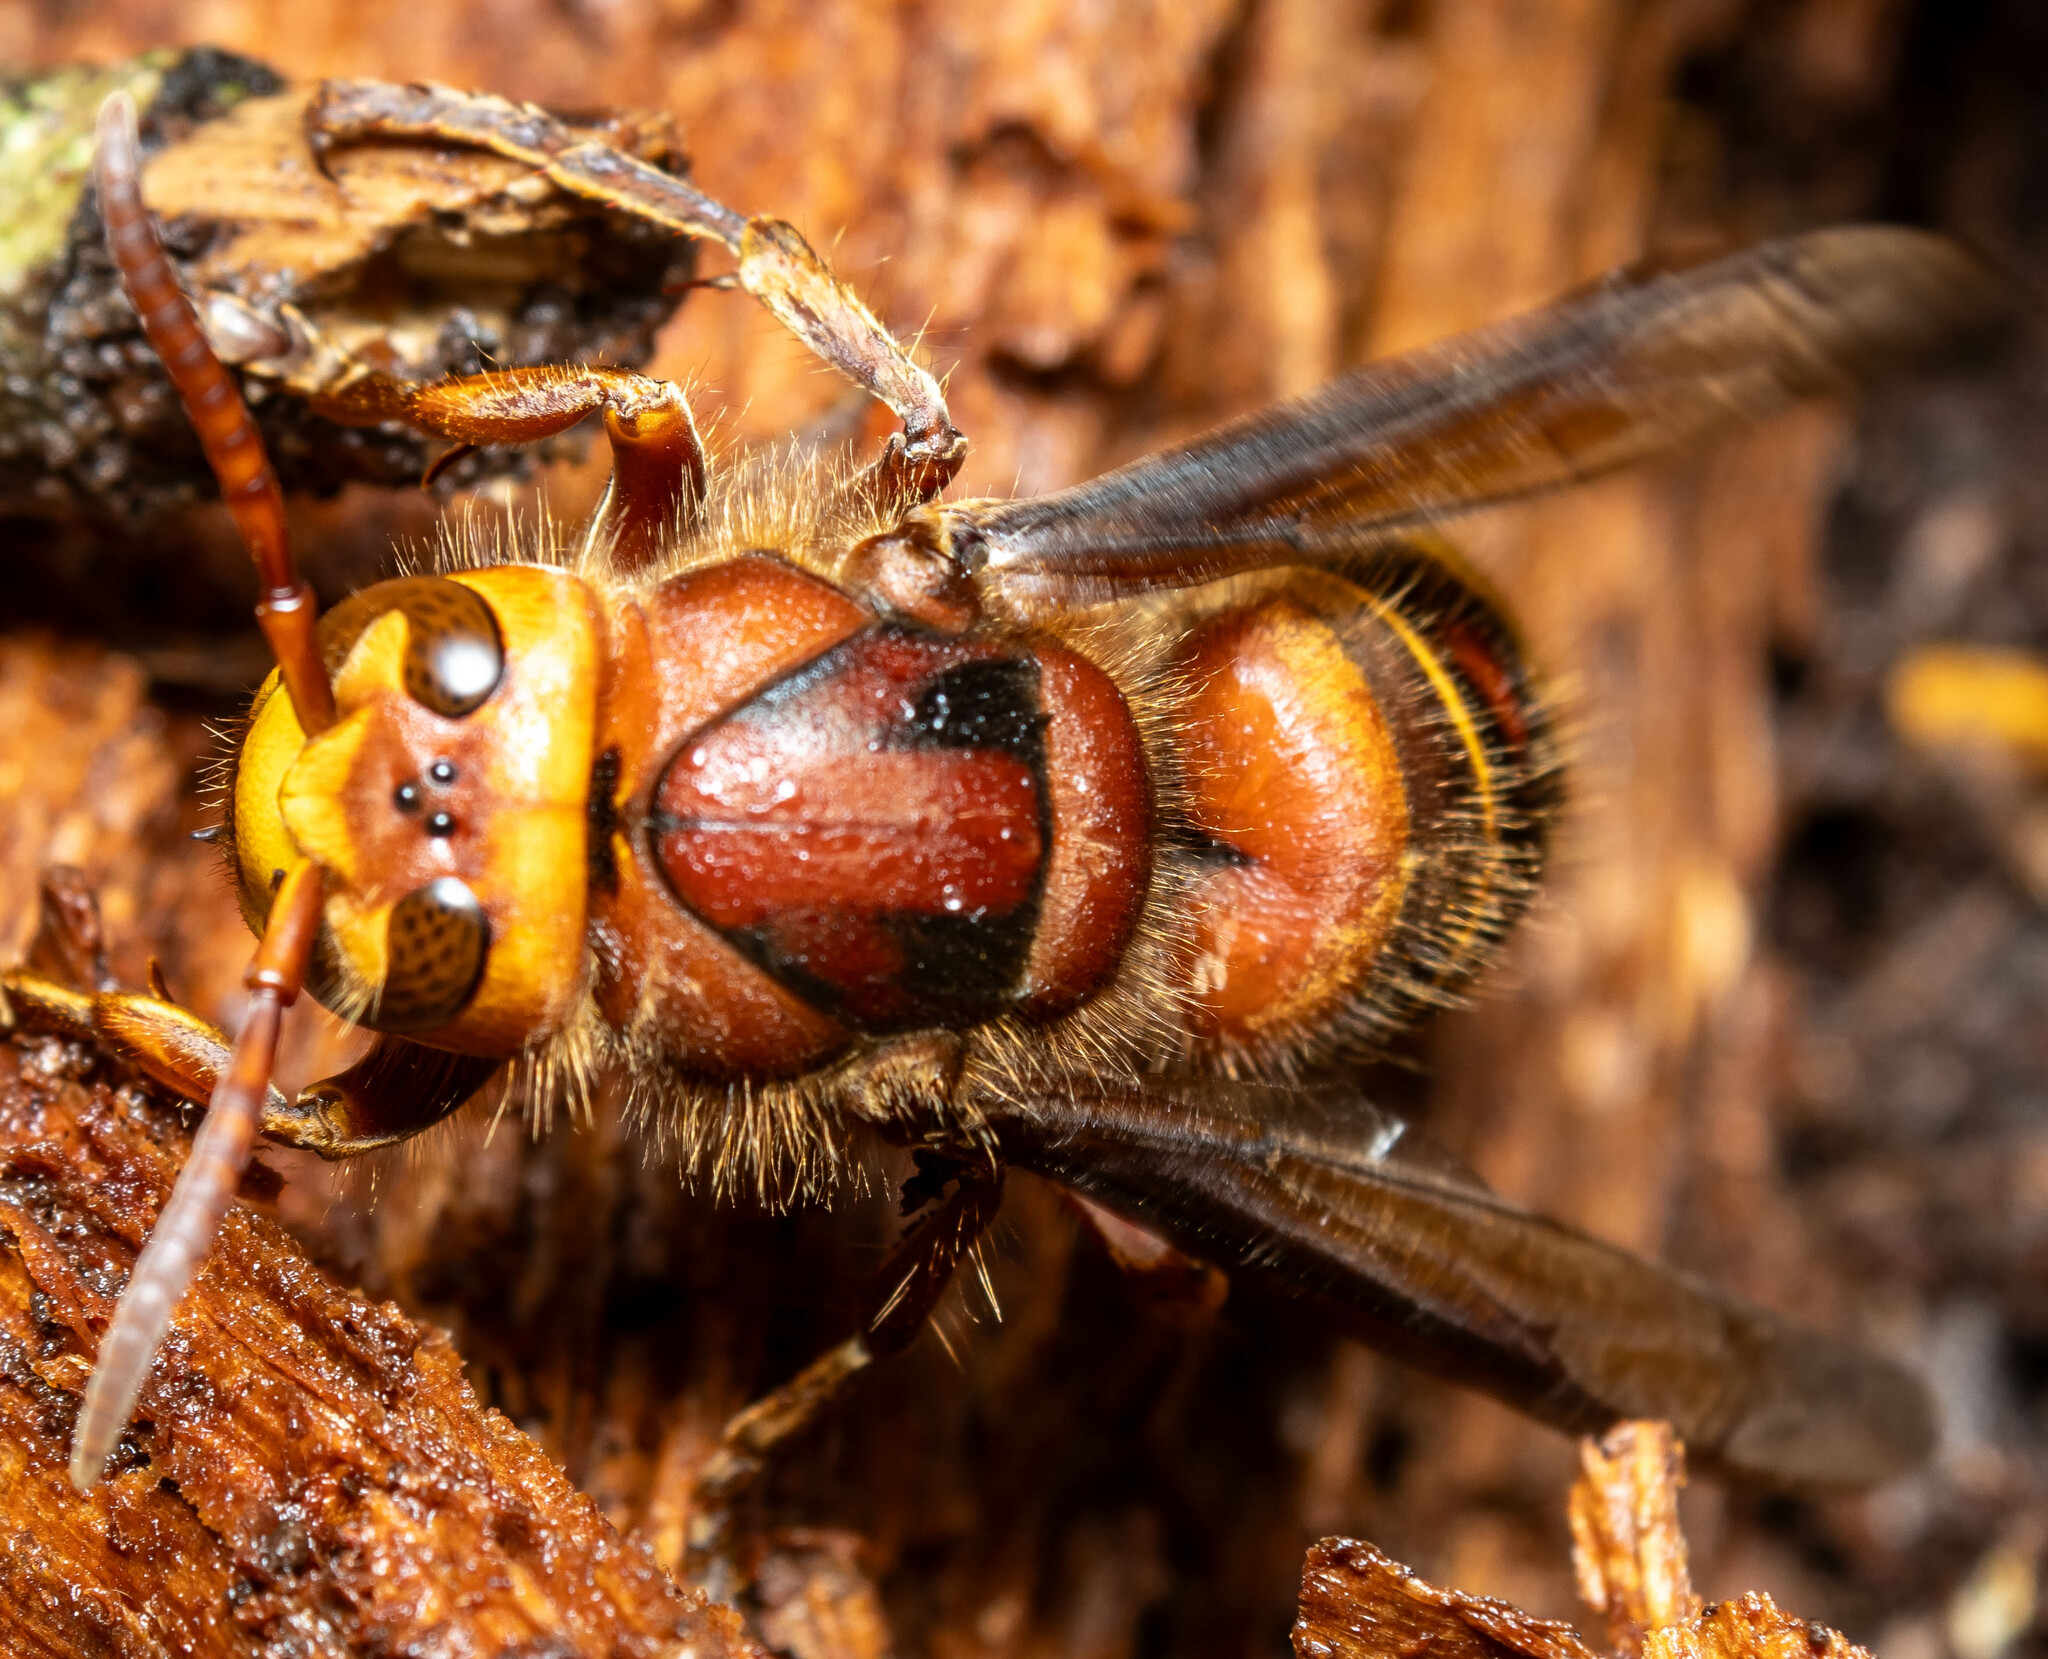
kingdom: Animalia
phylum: Arthropoda
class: Insecta
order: Hymenoptera
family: Vespidae
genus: Vespa
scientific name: Vespa crabro
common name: Hornet
